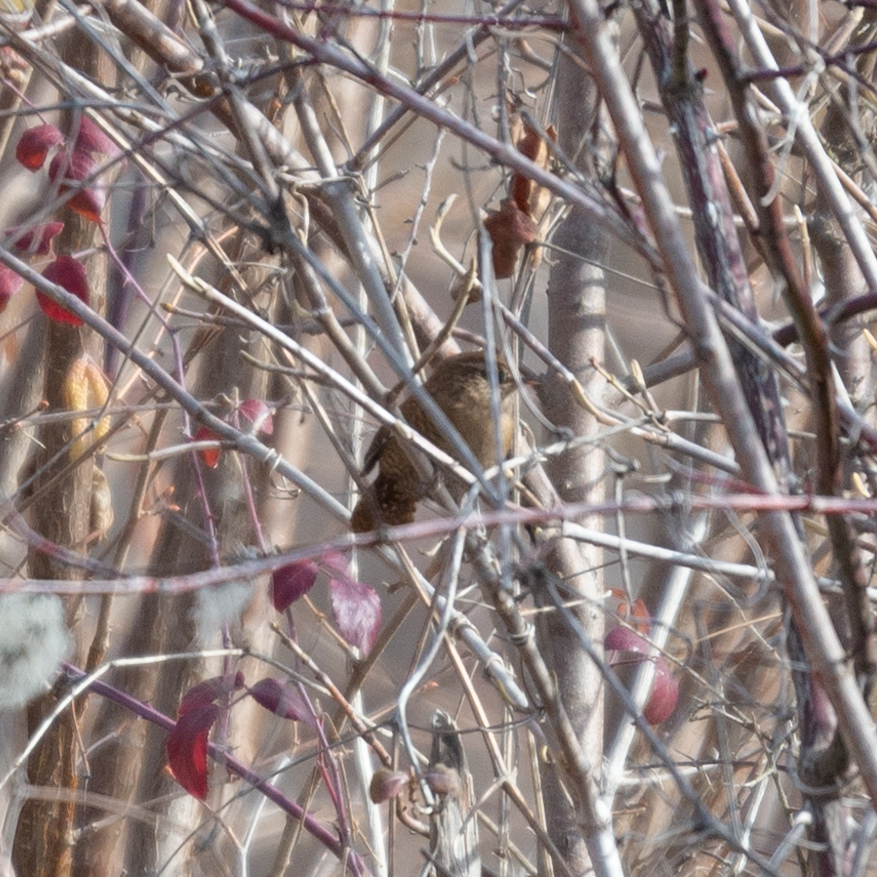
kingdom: Animalia
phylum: Chordata
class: Aves
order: Passeriformes
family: Troglodytidae
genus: Troglodytes
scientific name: Troglodytes troglodytes
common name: Eurasian wren
